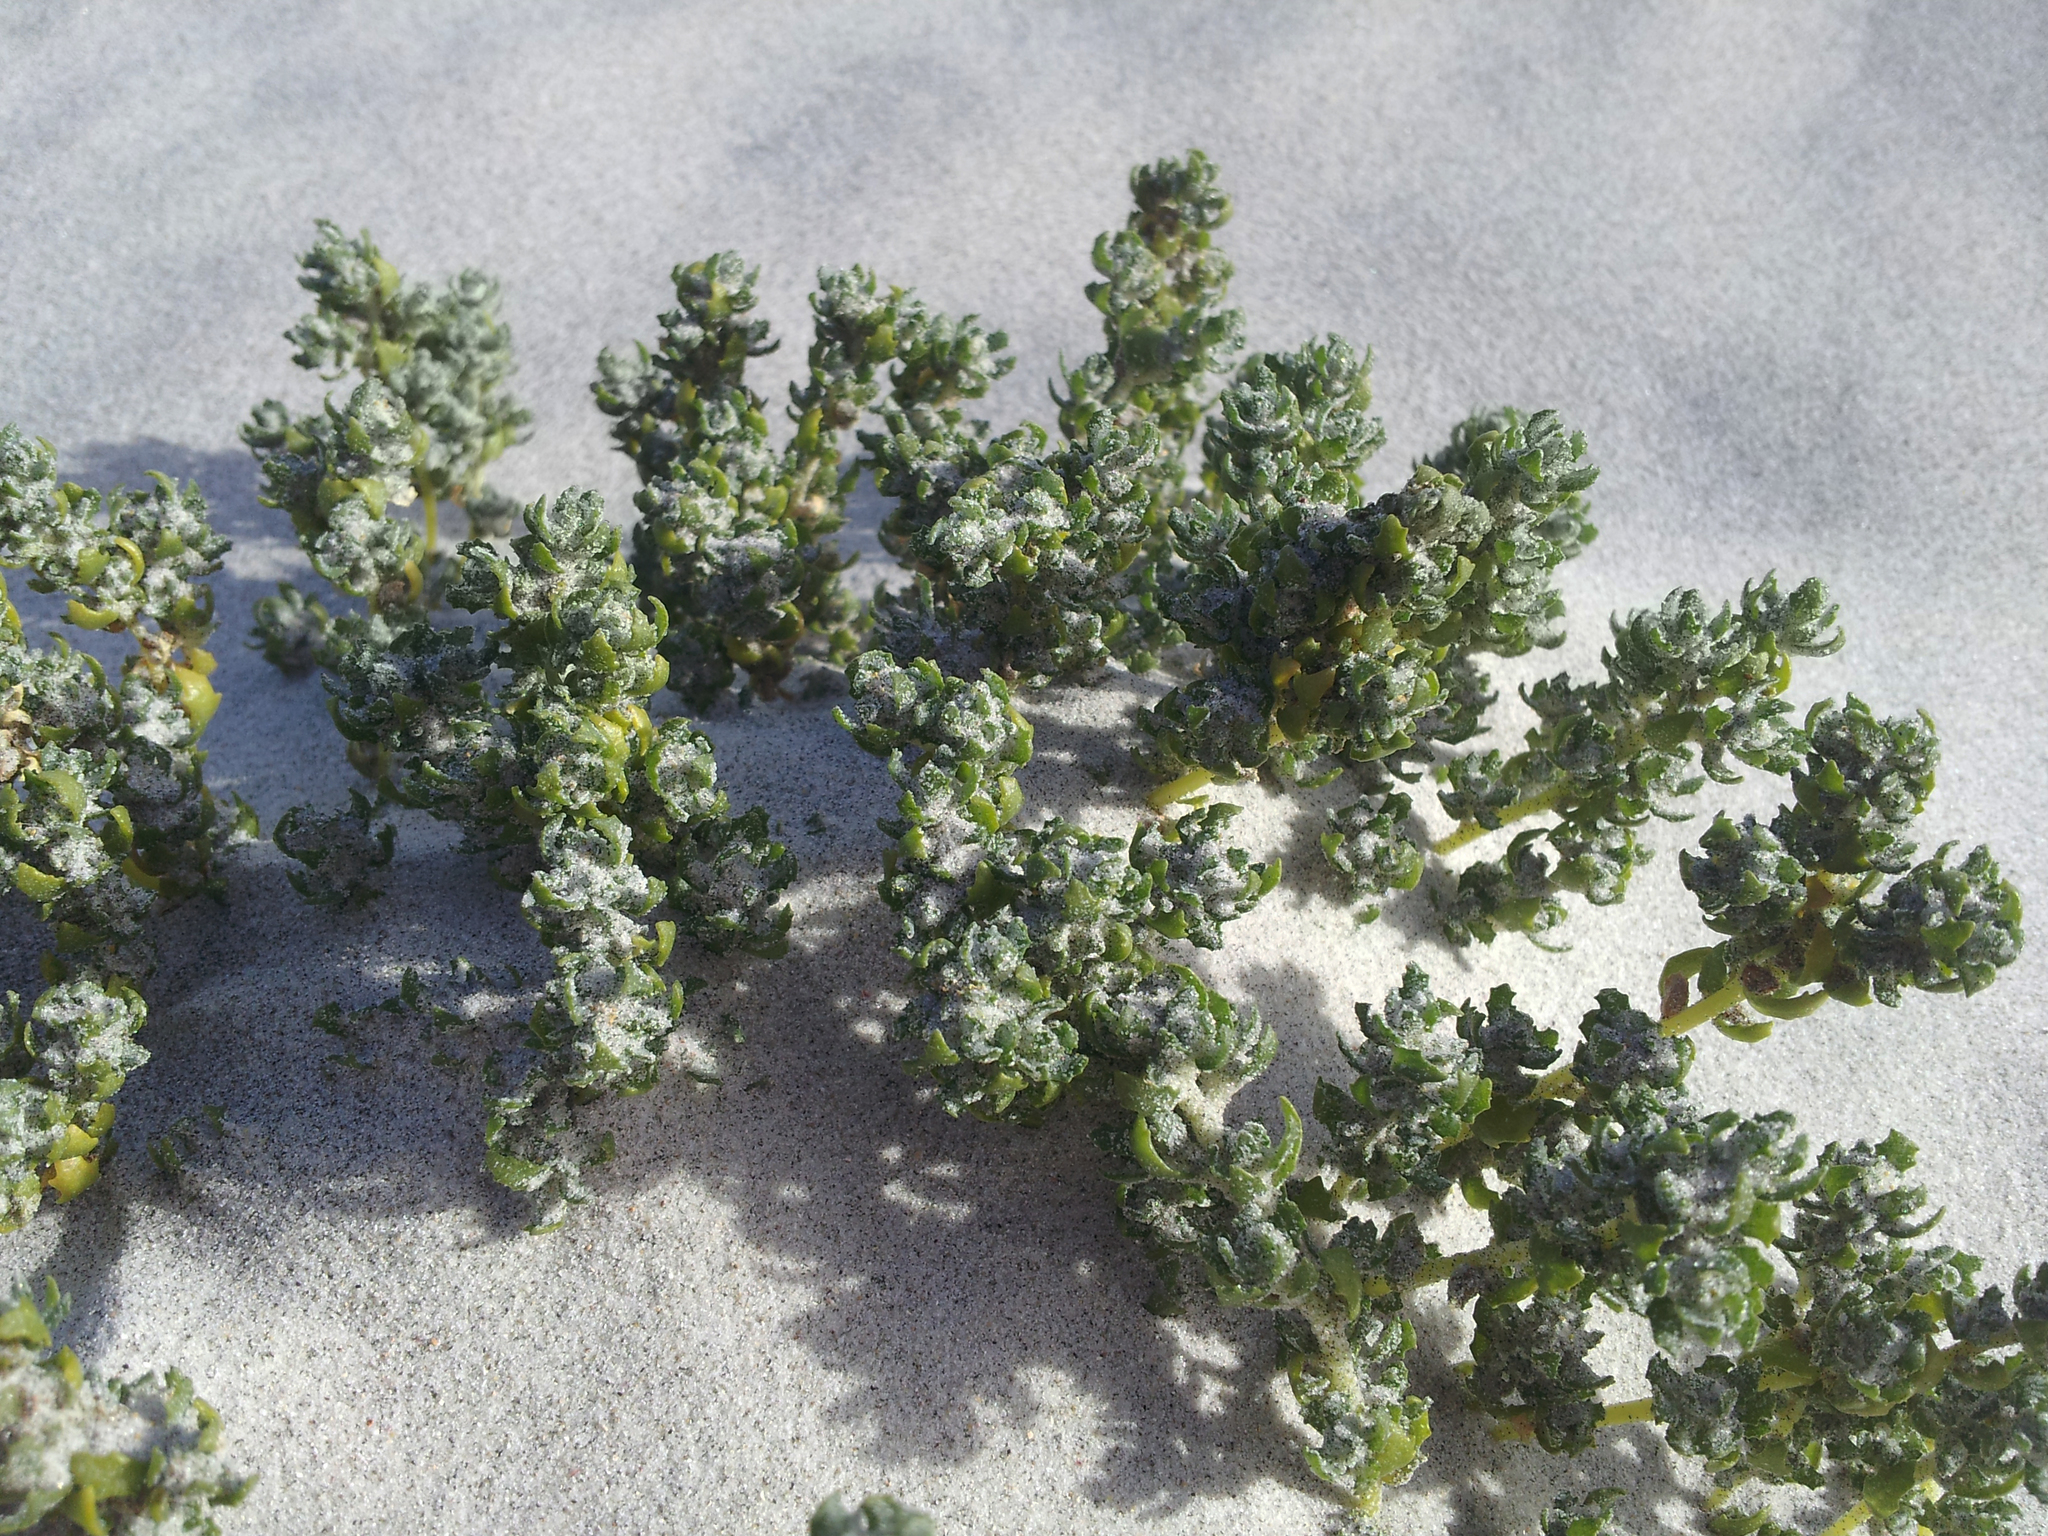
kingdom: Plantae
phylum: Tracheophyta
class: Magnoliopsida
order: Caryophyllales
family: Amaranthaceae
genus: Atriplex
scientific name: Atriplex hollowayi
